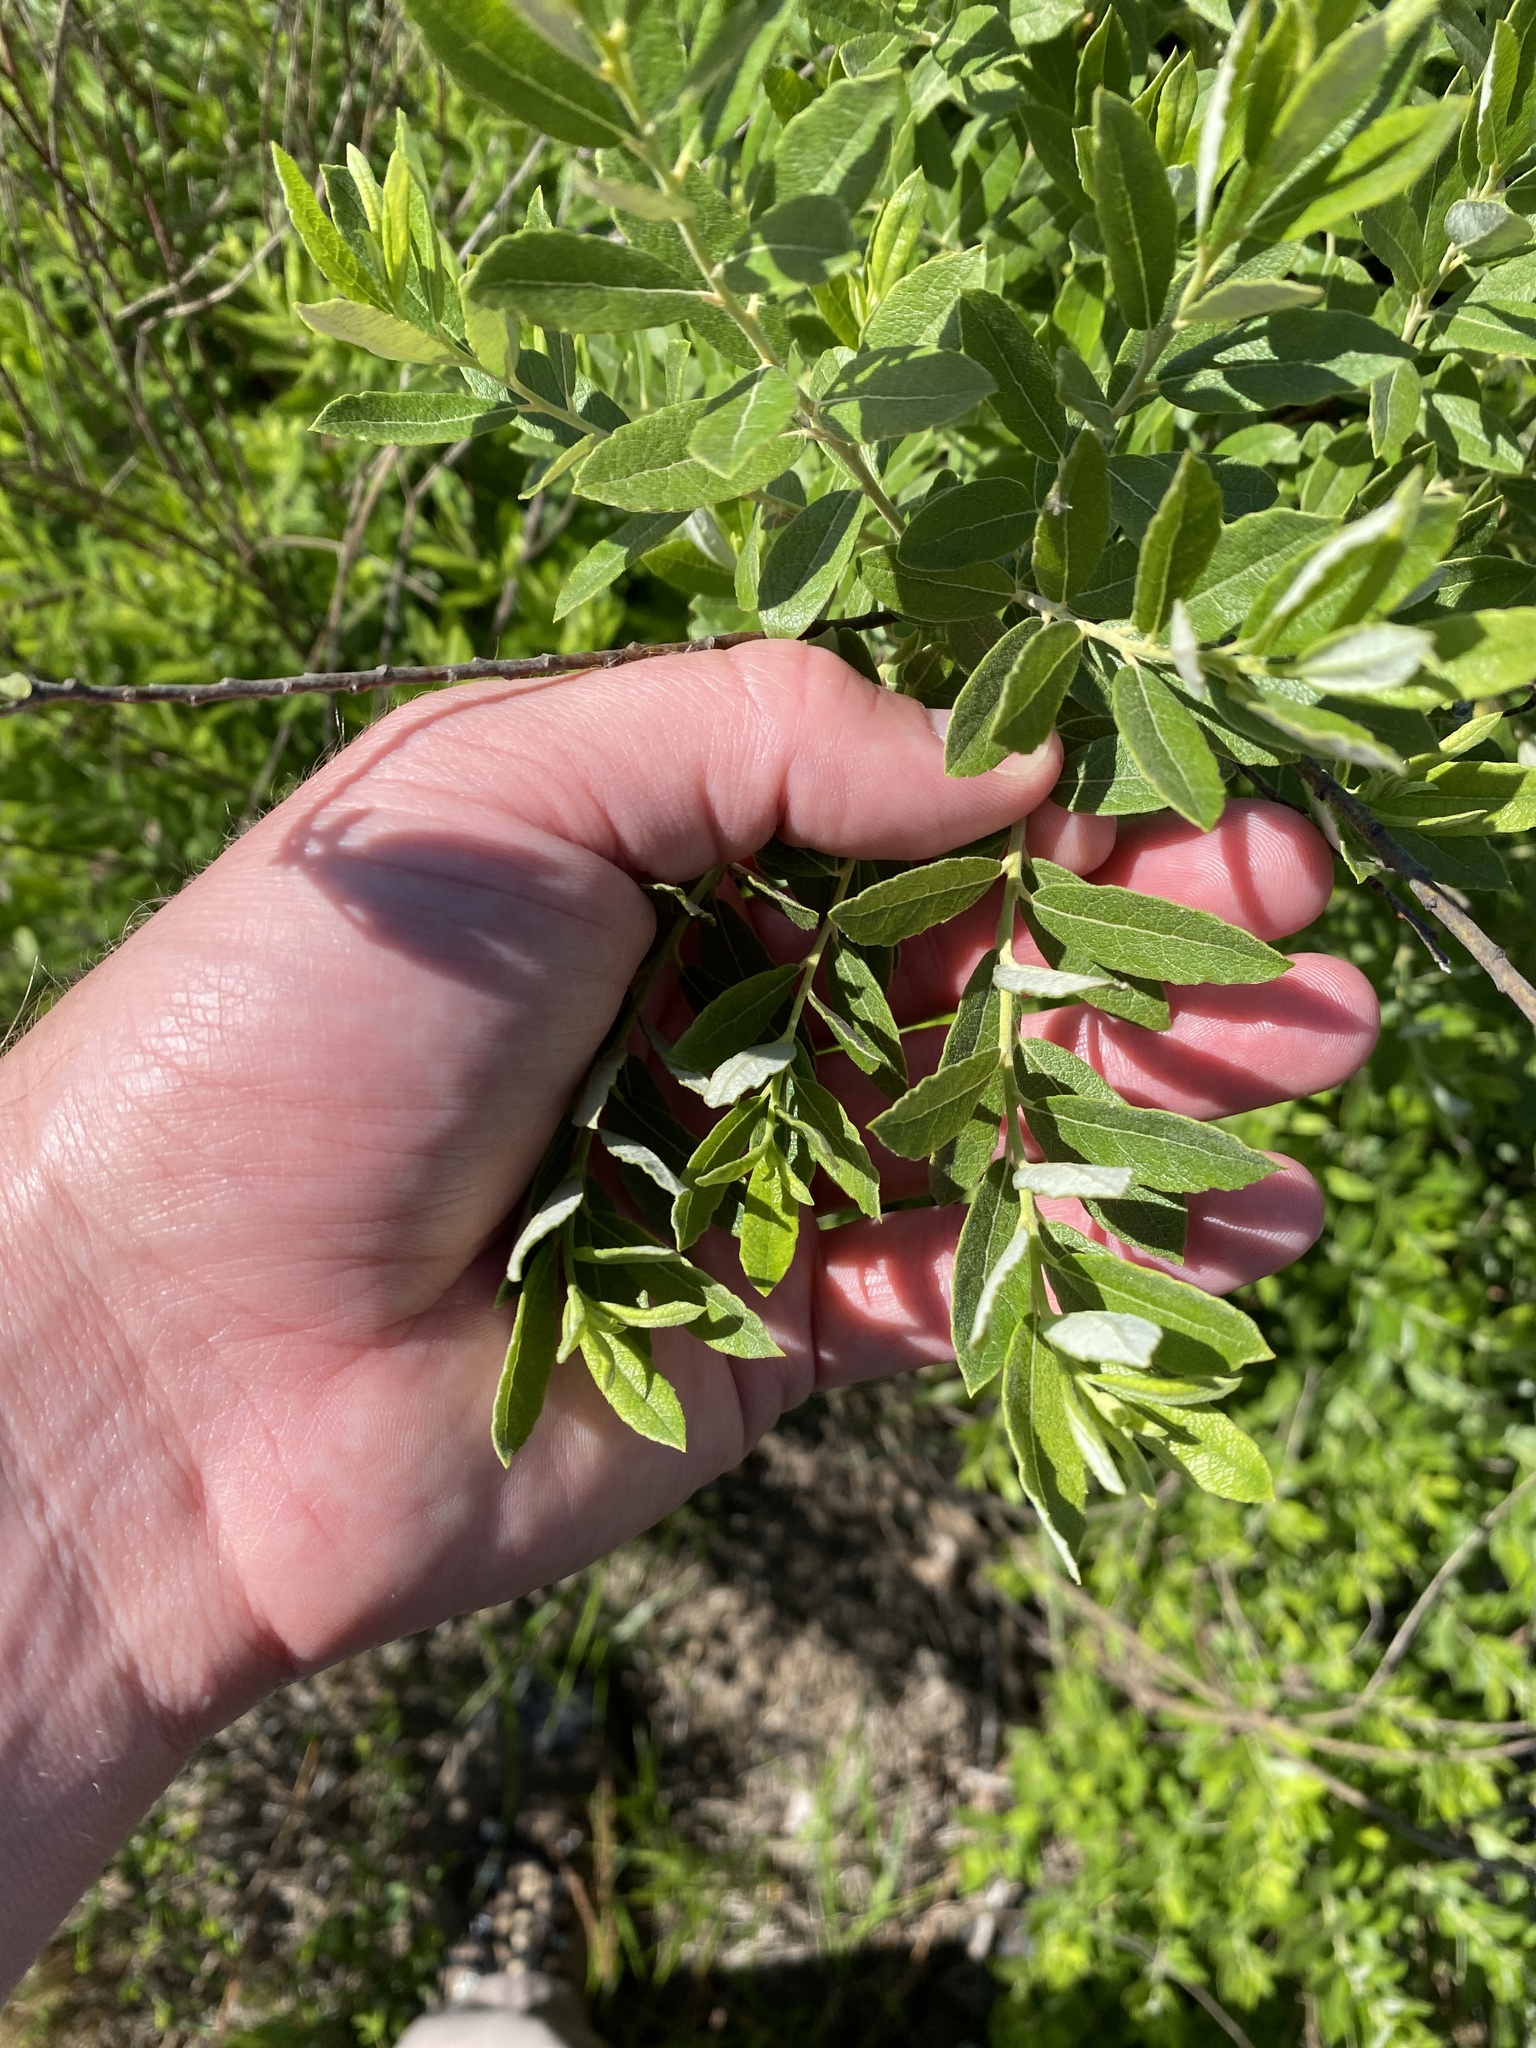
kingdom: Plantae
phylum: Tracheophyta
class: Magnoliopsida
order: Malpighiales
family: Salicaceae
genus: Salix
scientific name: Salix humilis
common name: Prairie willow
